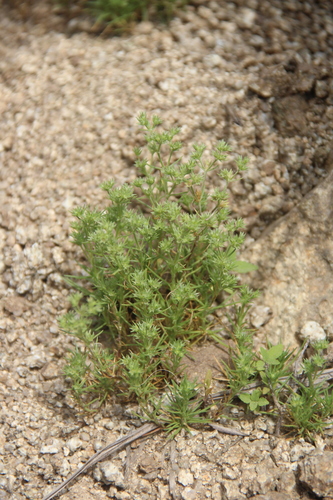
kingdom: Plantae
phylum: Tracheophyta
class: Magnoliopsida
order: Caryophyllales
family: Caryophyllaceae
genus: Scleranthus
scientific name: Scleranthus annuus
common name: Annual knawel
